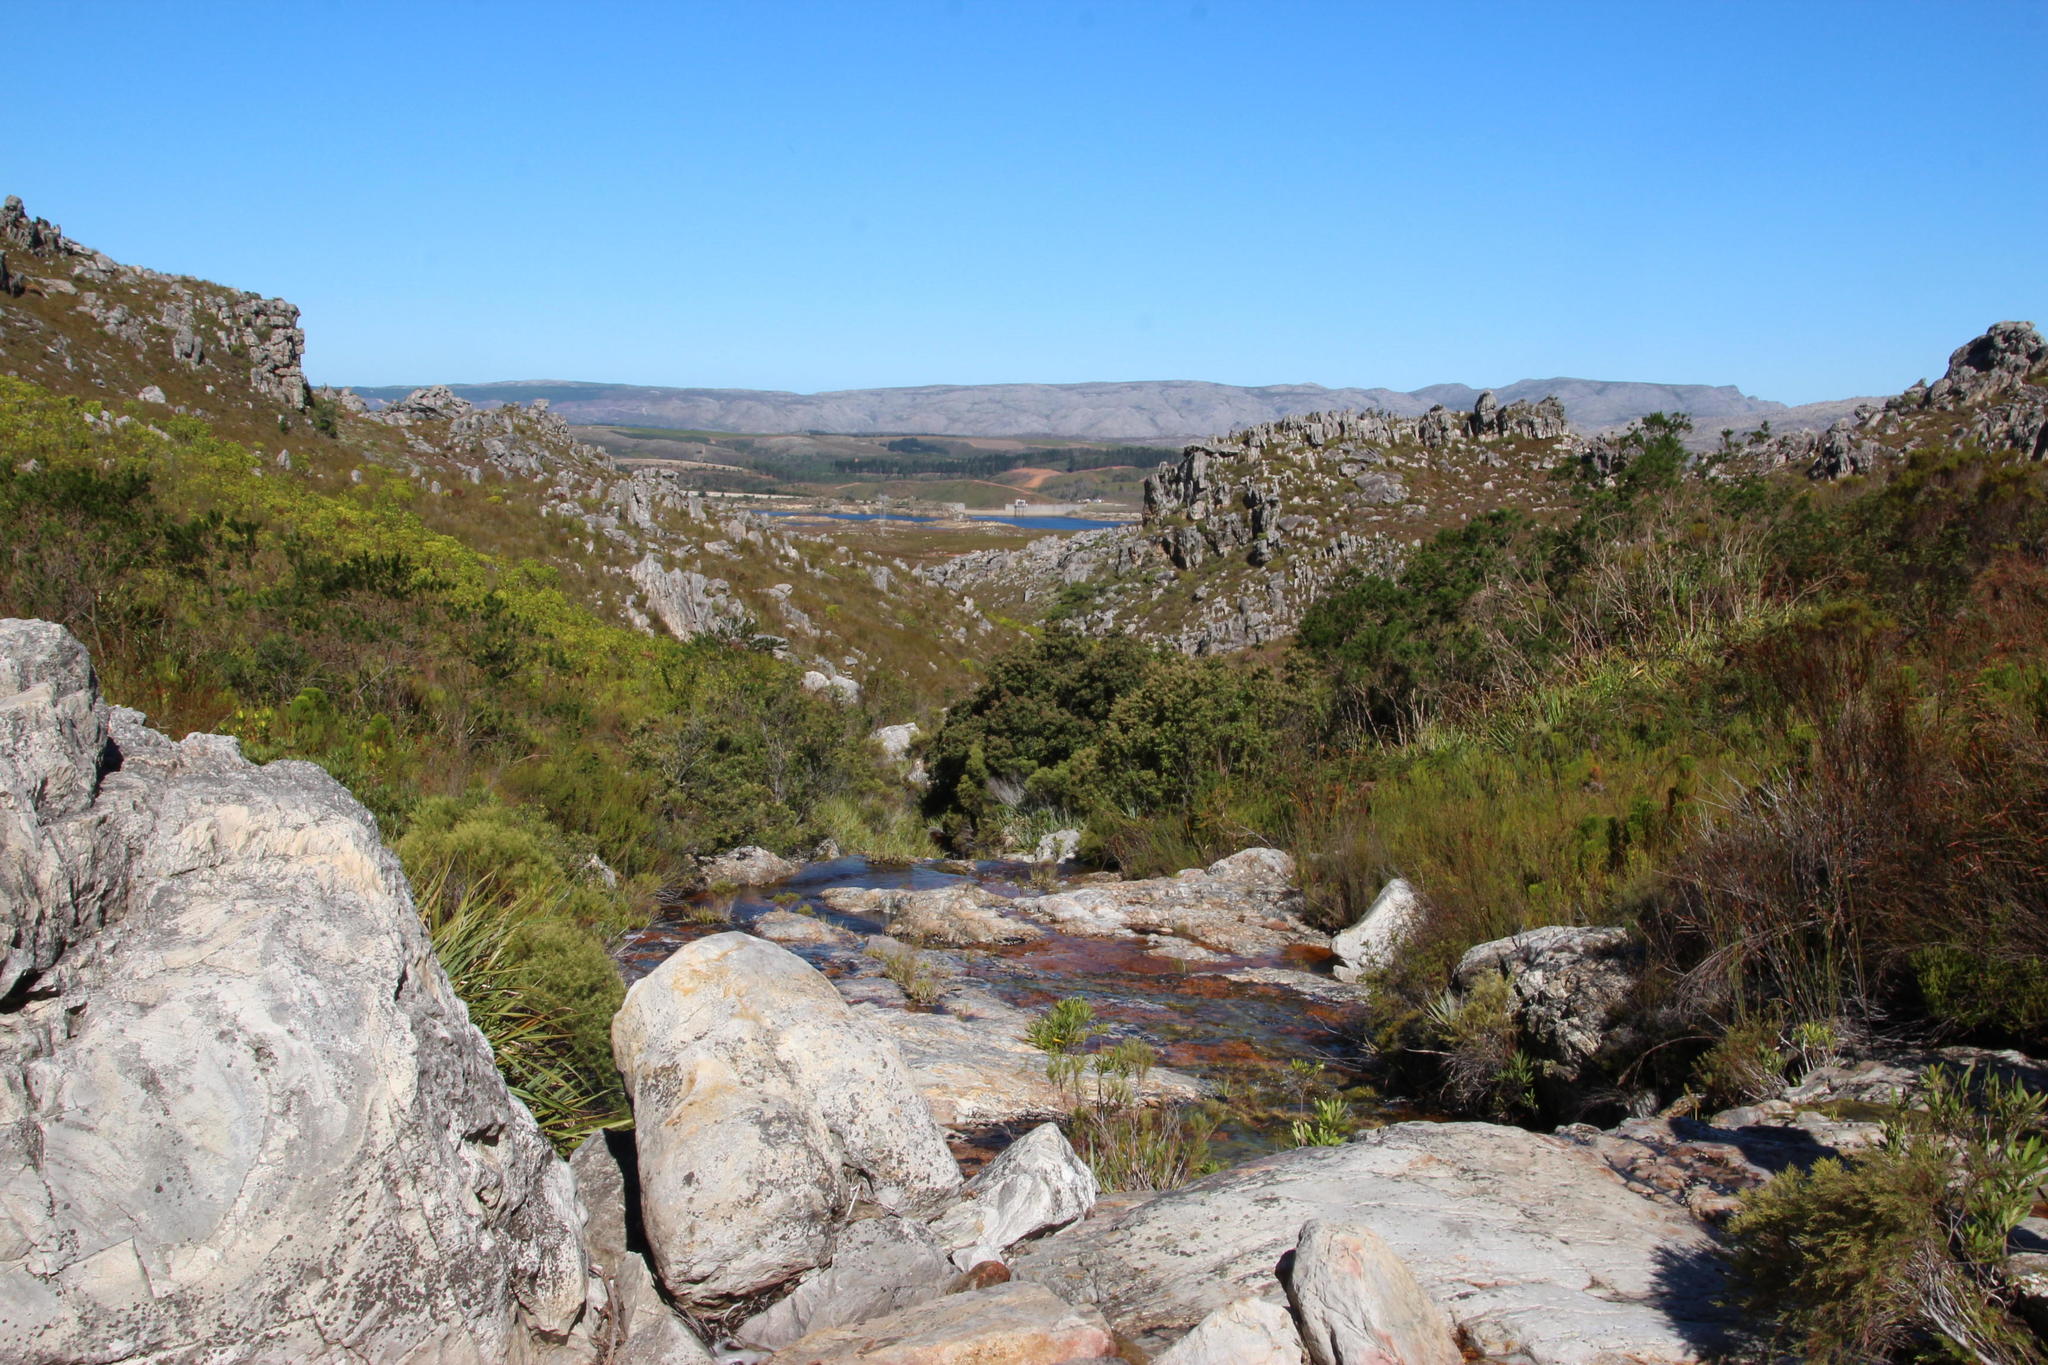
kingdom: Plantae
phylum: Tracheophyta
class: Magnoliopsida
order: Asterales
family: Asteraceae
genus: Brachylaena
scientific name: Brachylaena neriifolia
